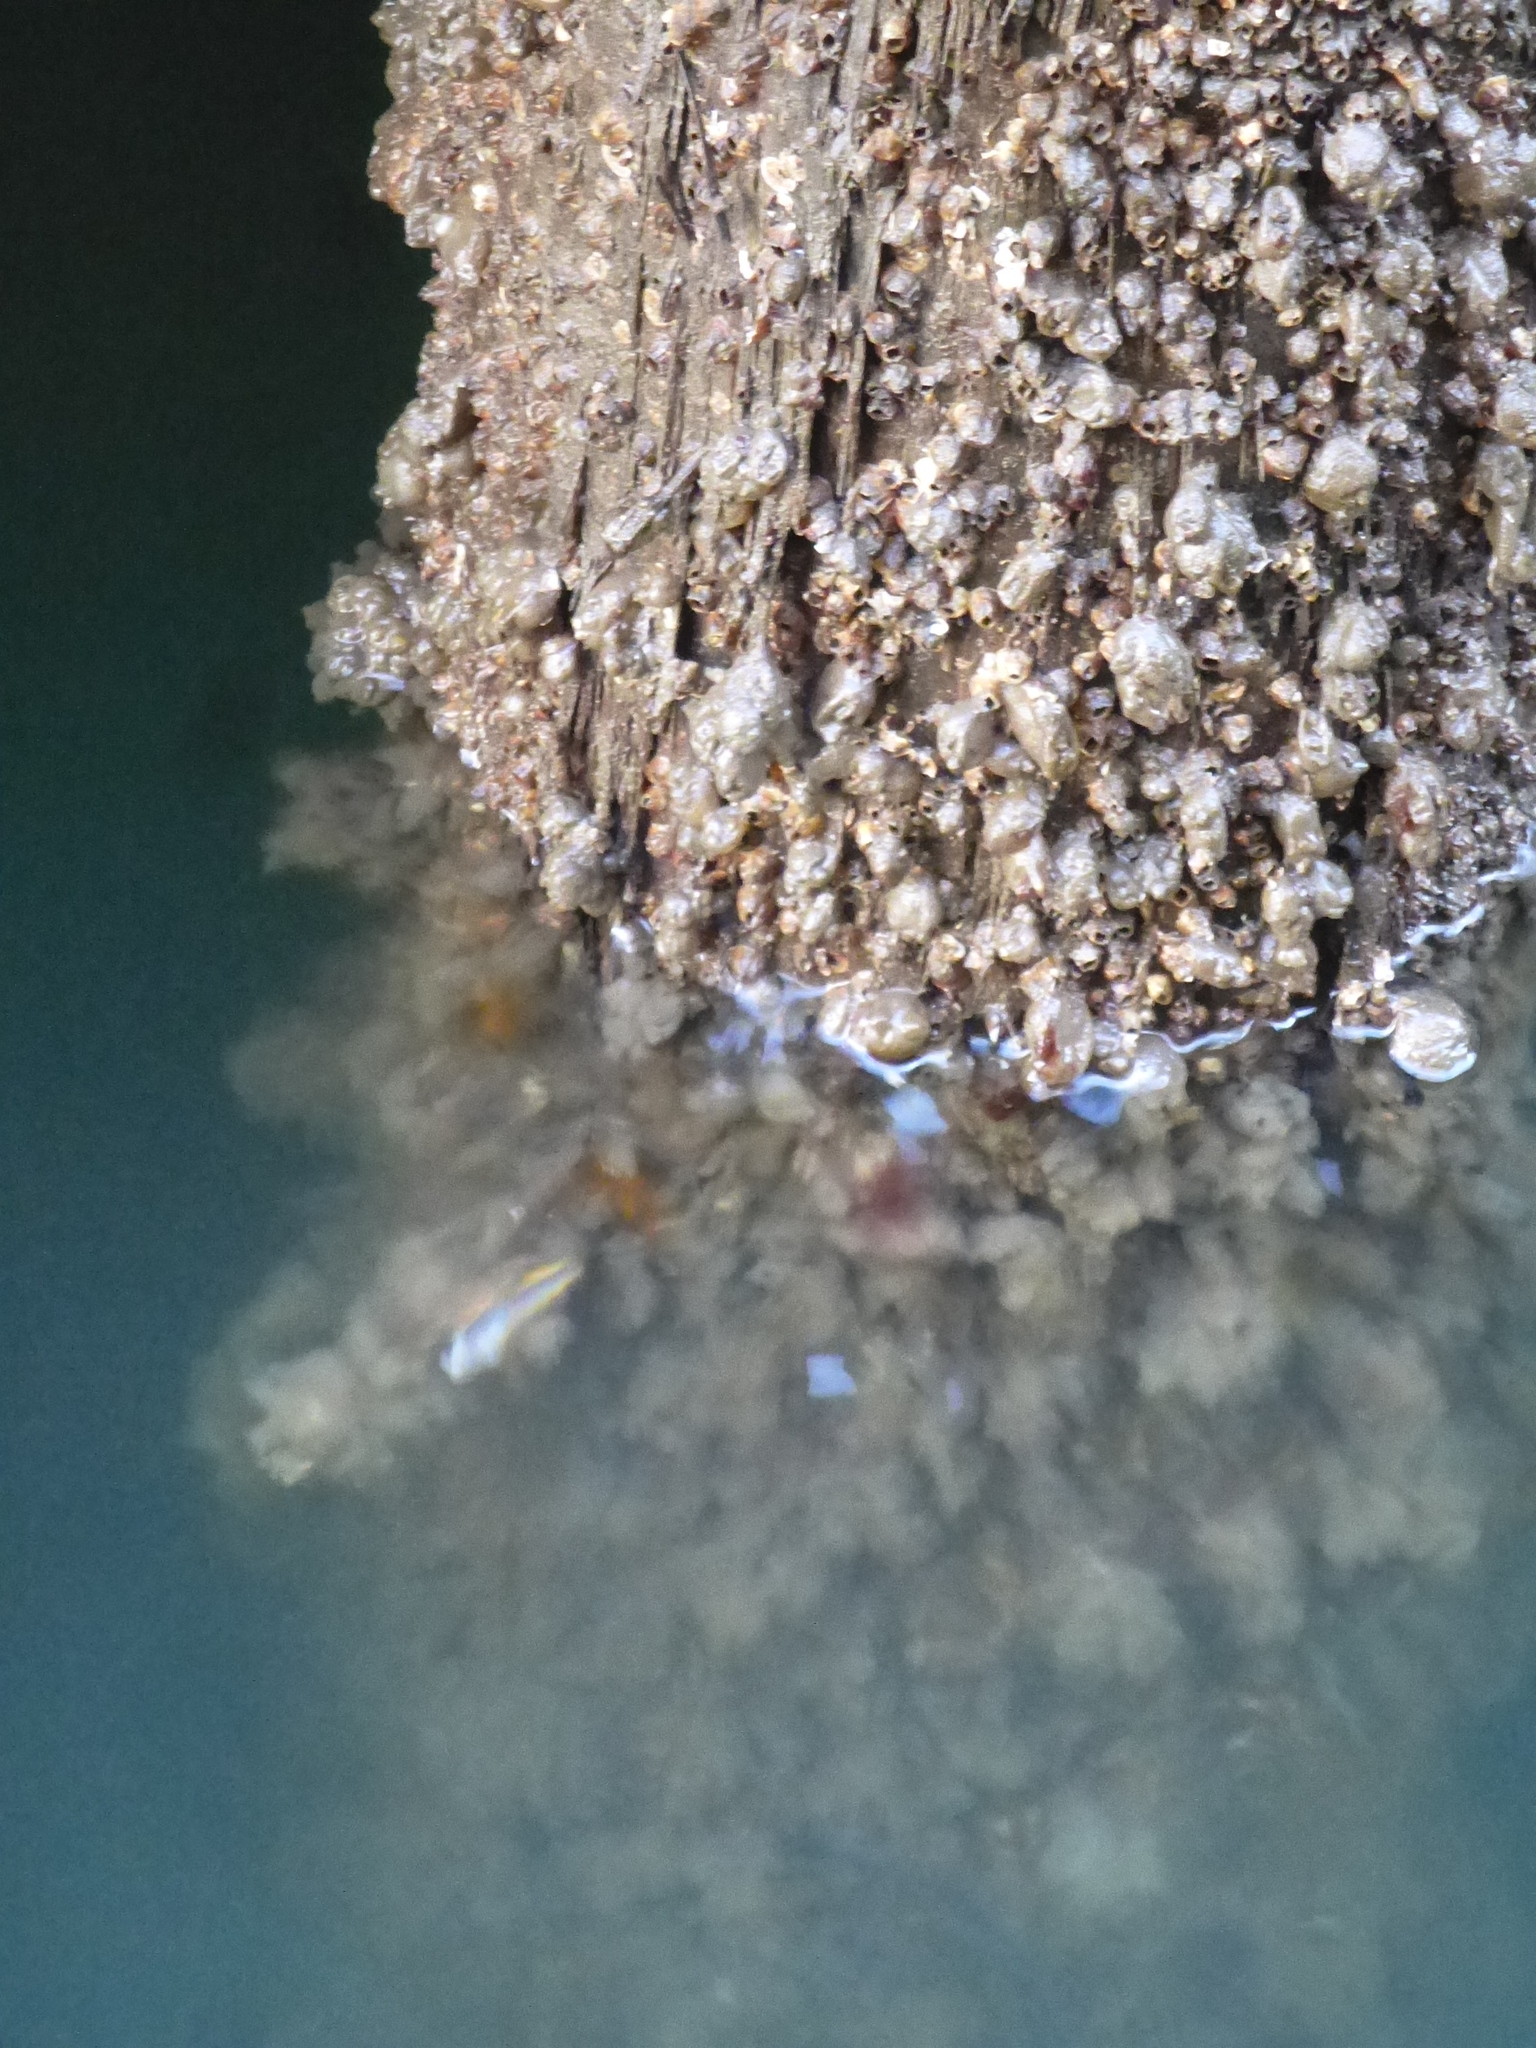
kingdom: Animalia
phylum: Chordata
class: Ascidiacea
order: Stolidobranchia
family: Molgulidae
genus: Molgula
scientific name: Molgula manhattensis
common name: Molgula
